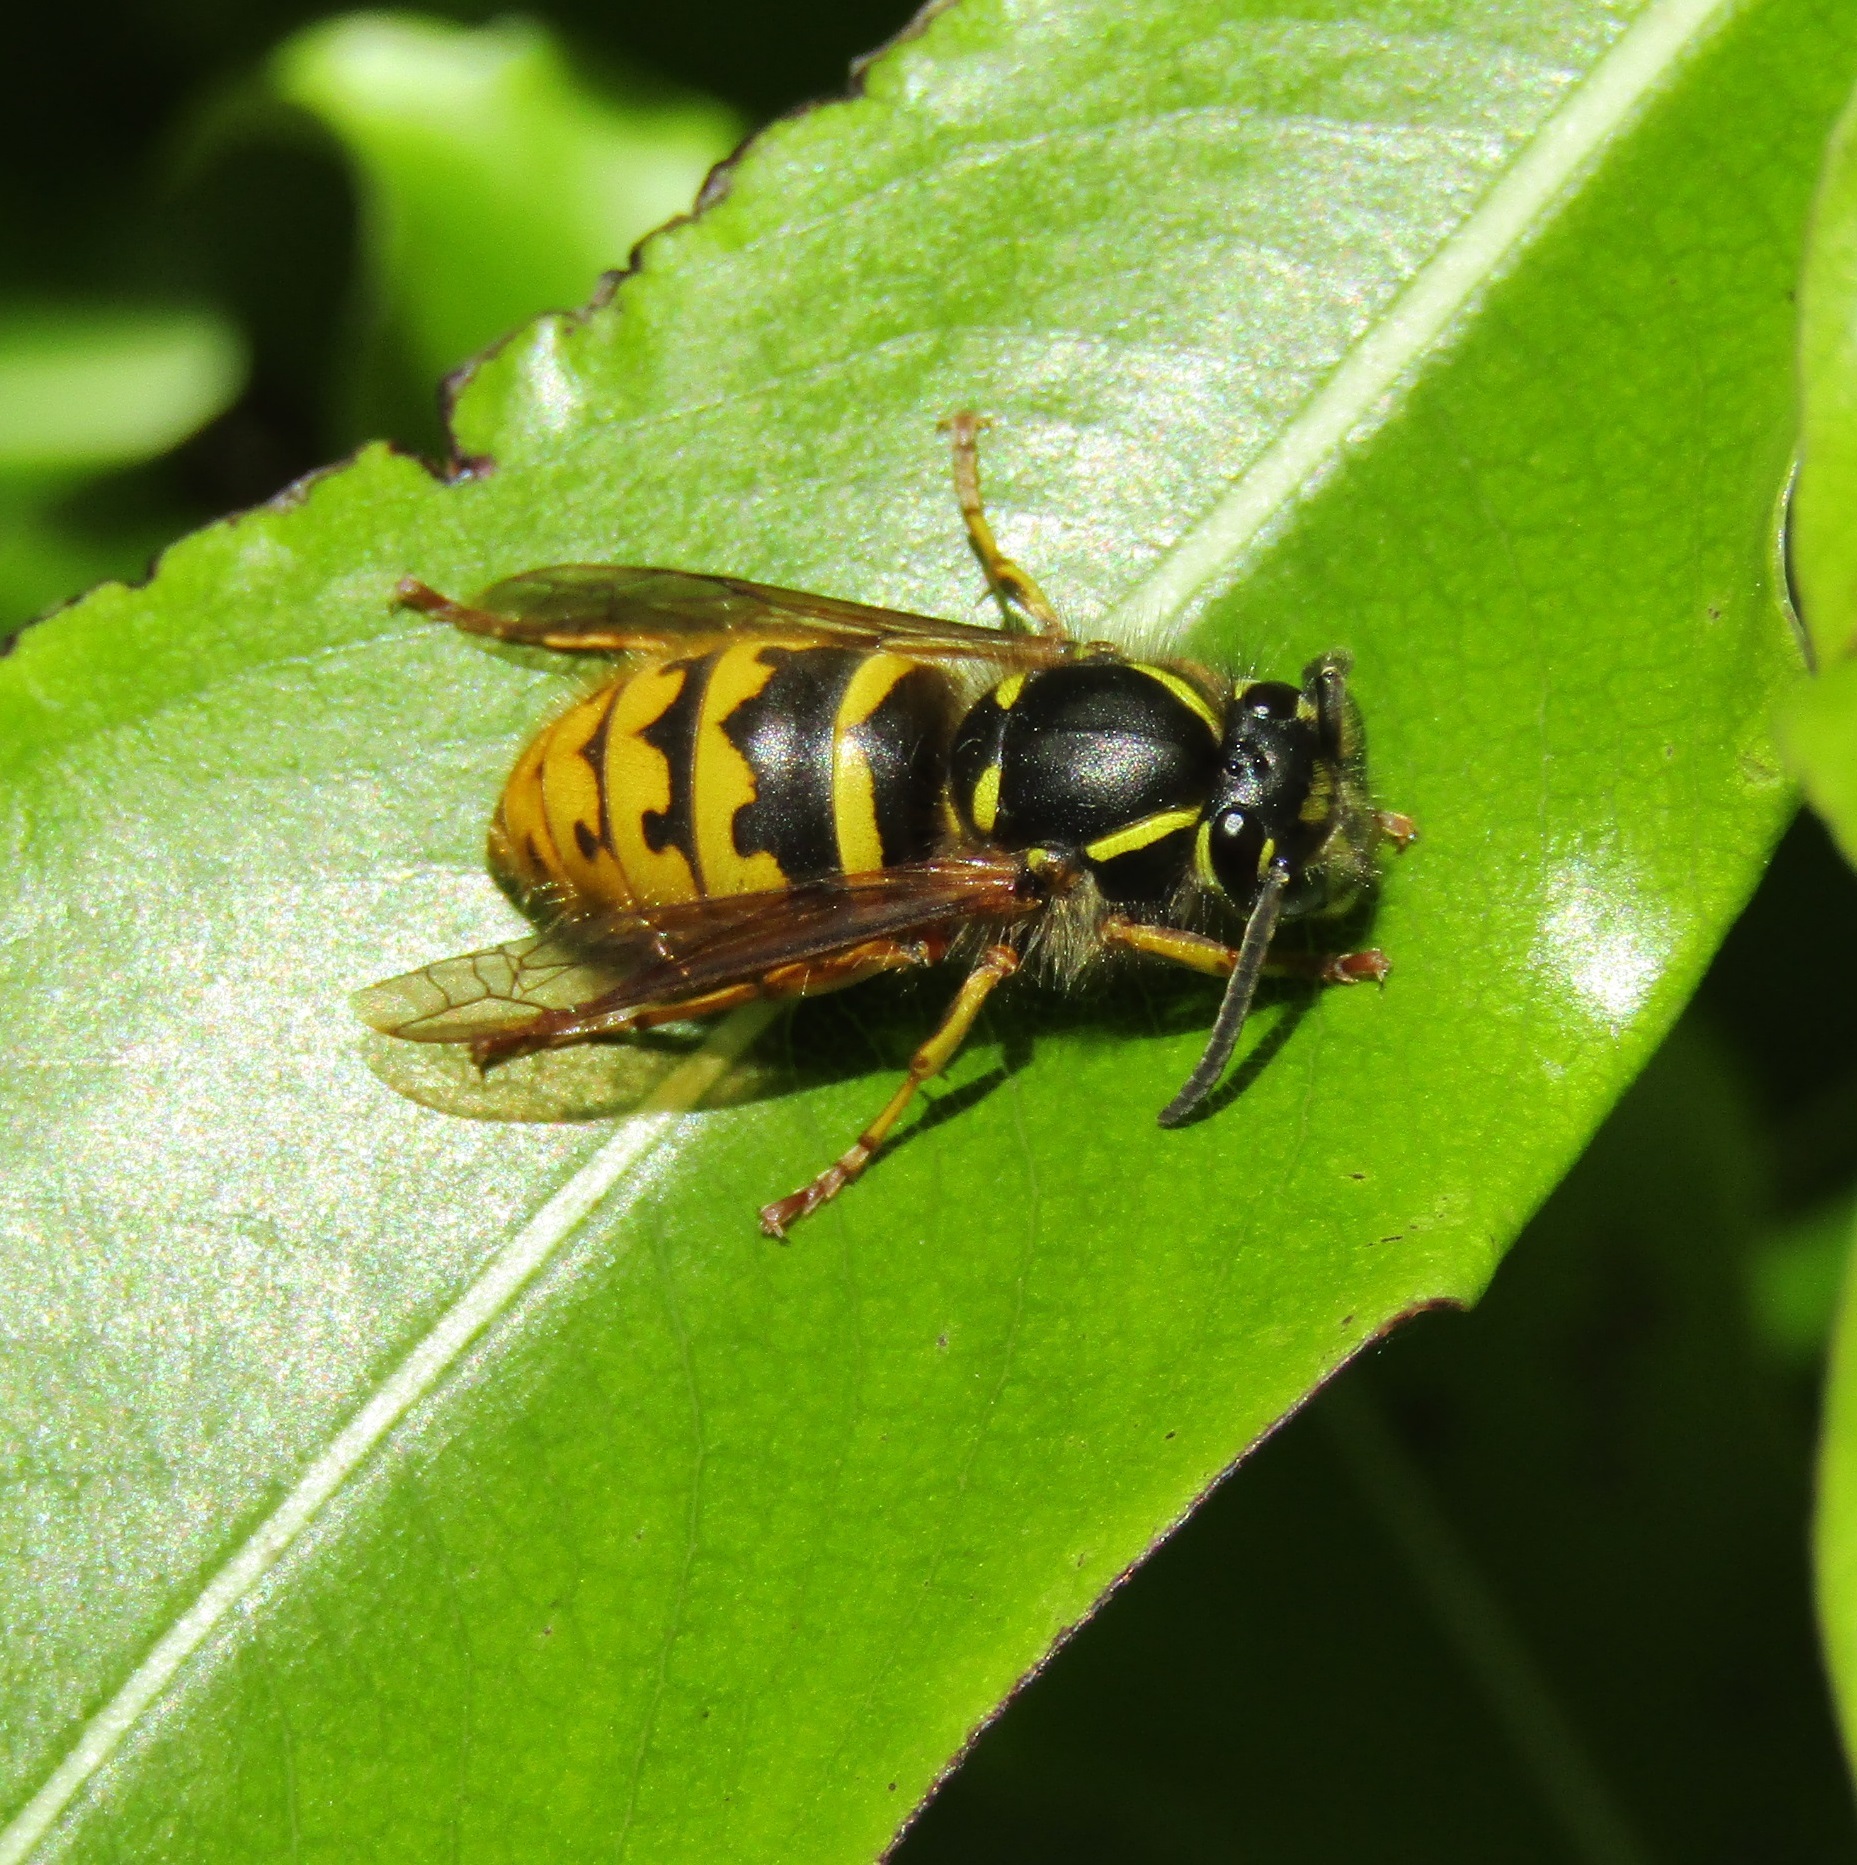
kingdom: Animalia
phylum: Arthropoda
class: Insecta
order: Hymenoptera
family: Vespidae
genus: Vespula
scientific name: Vespula vulgaris
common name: Common wasp
